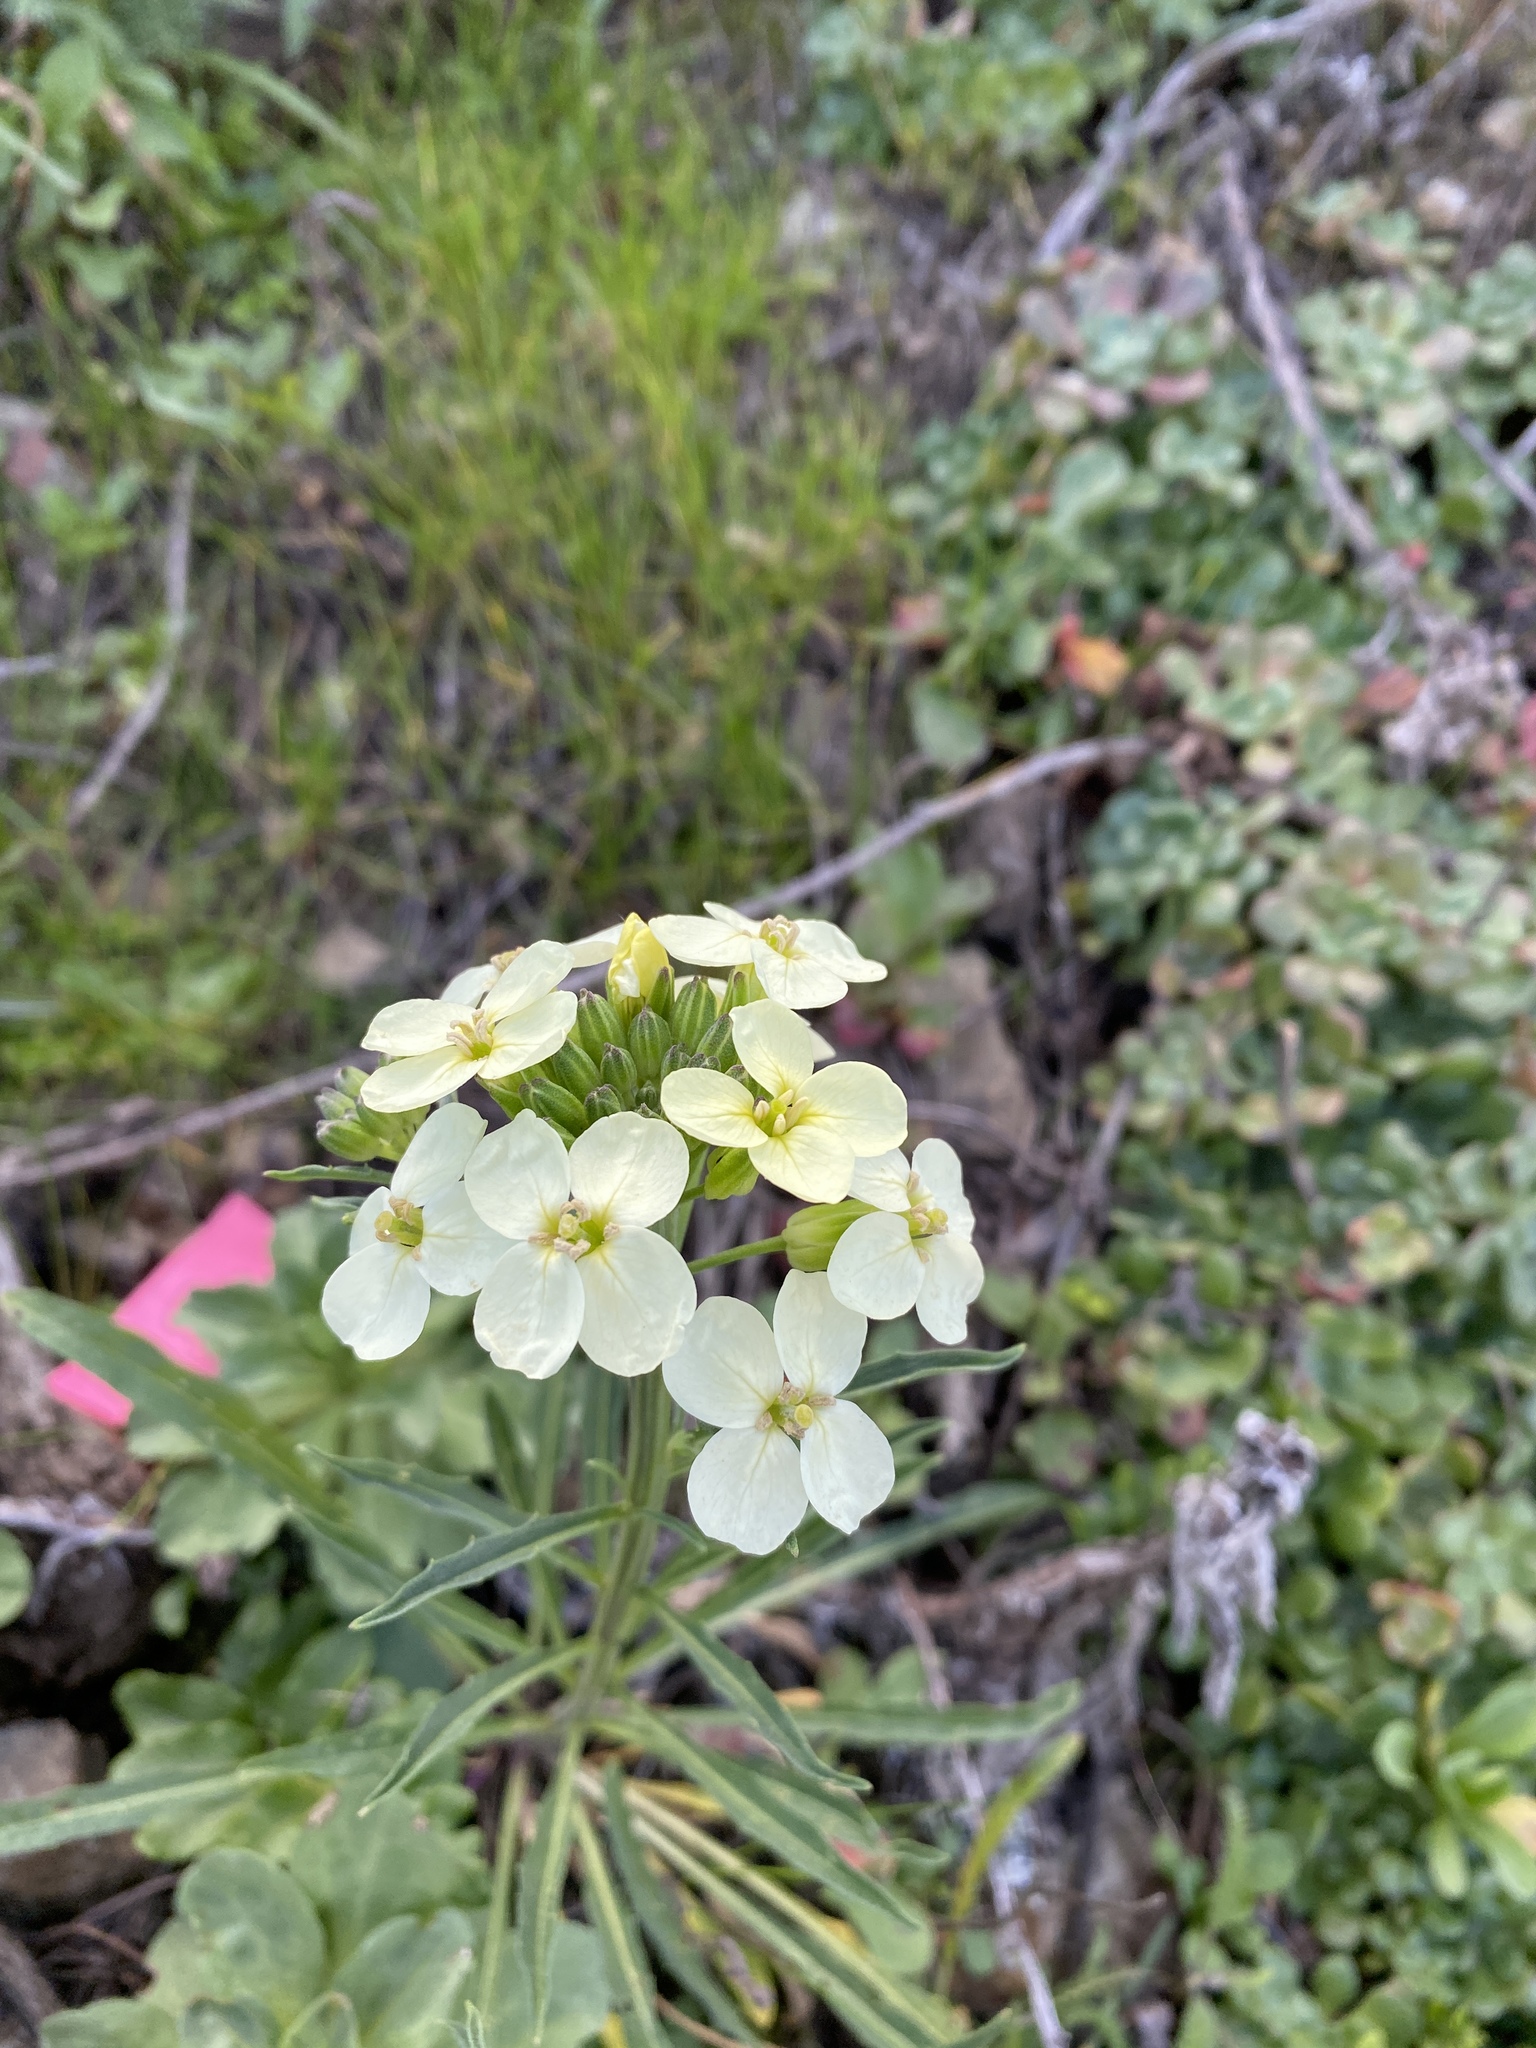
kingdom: Plantae
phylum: Tracheophyta
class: Magnoliopsida
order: Brassicales
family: Brassicaceae
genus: Erysimum
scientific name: Erysimum franciscanum
